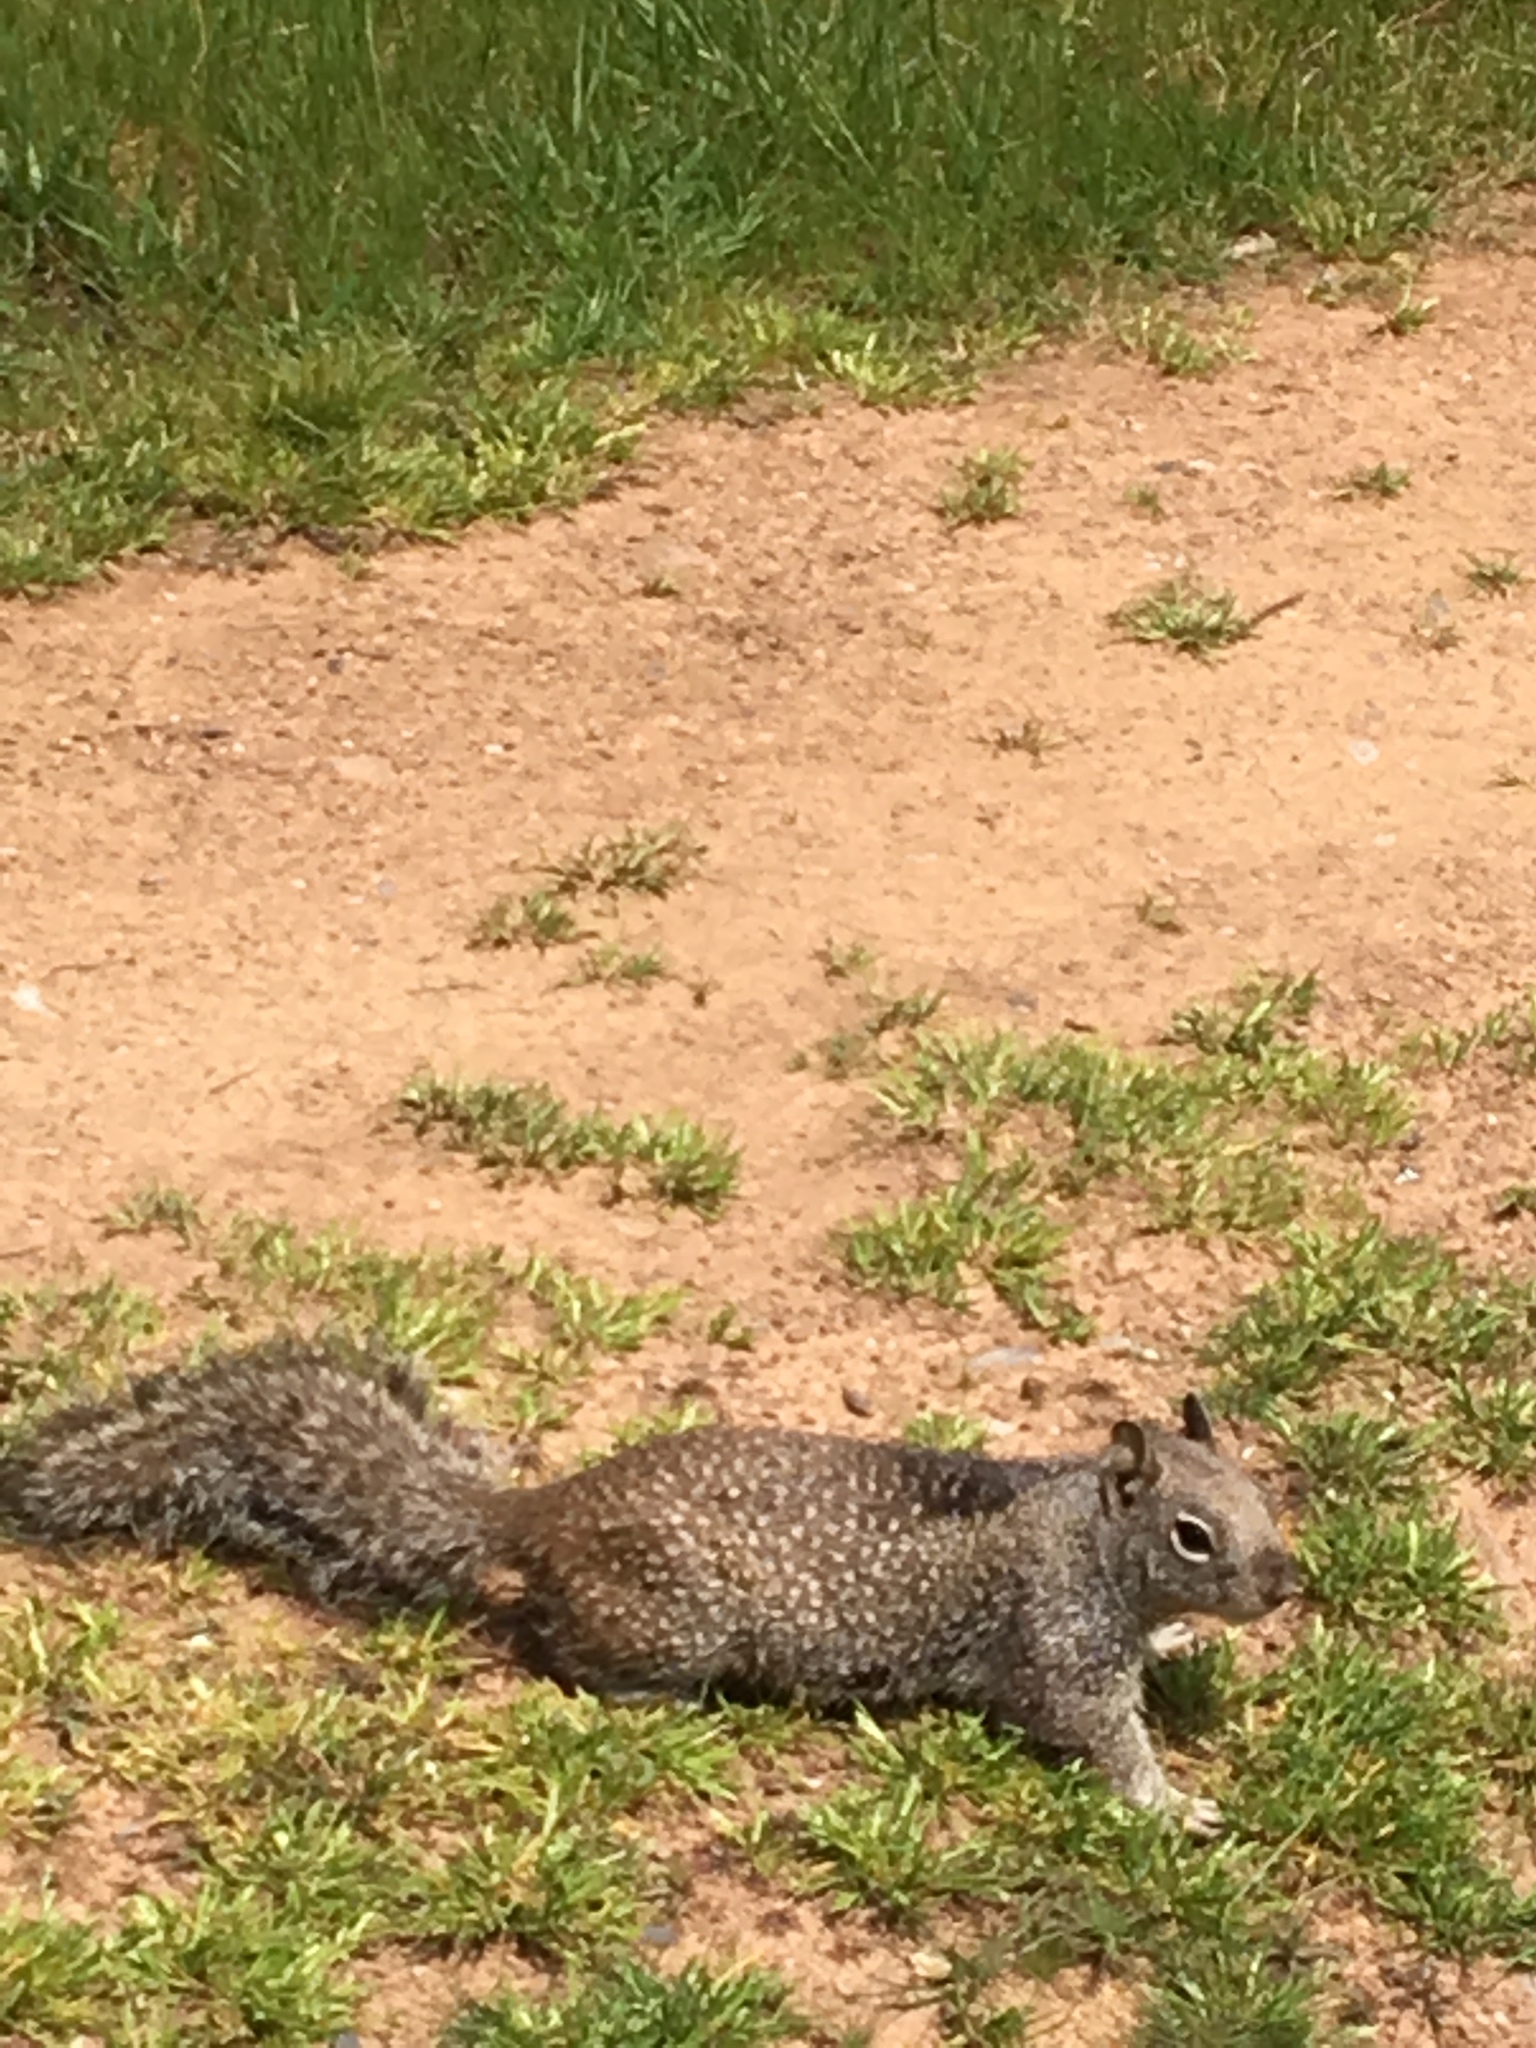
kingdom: Animalia
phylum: Chordata
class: Mammalia
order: Rodentia
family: Sciuridae
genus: Otospermophilus
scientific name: Otospermophilus beecheyi
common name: California ground squirrel
